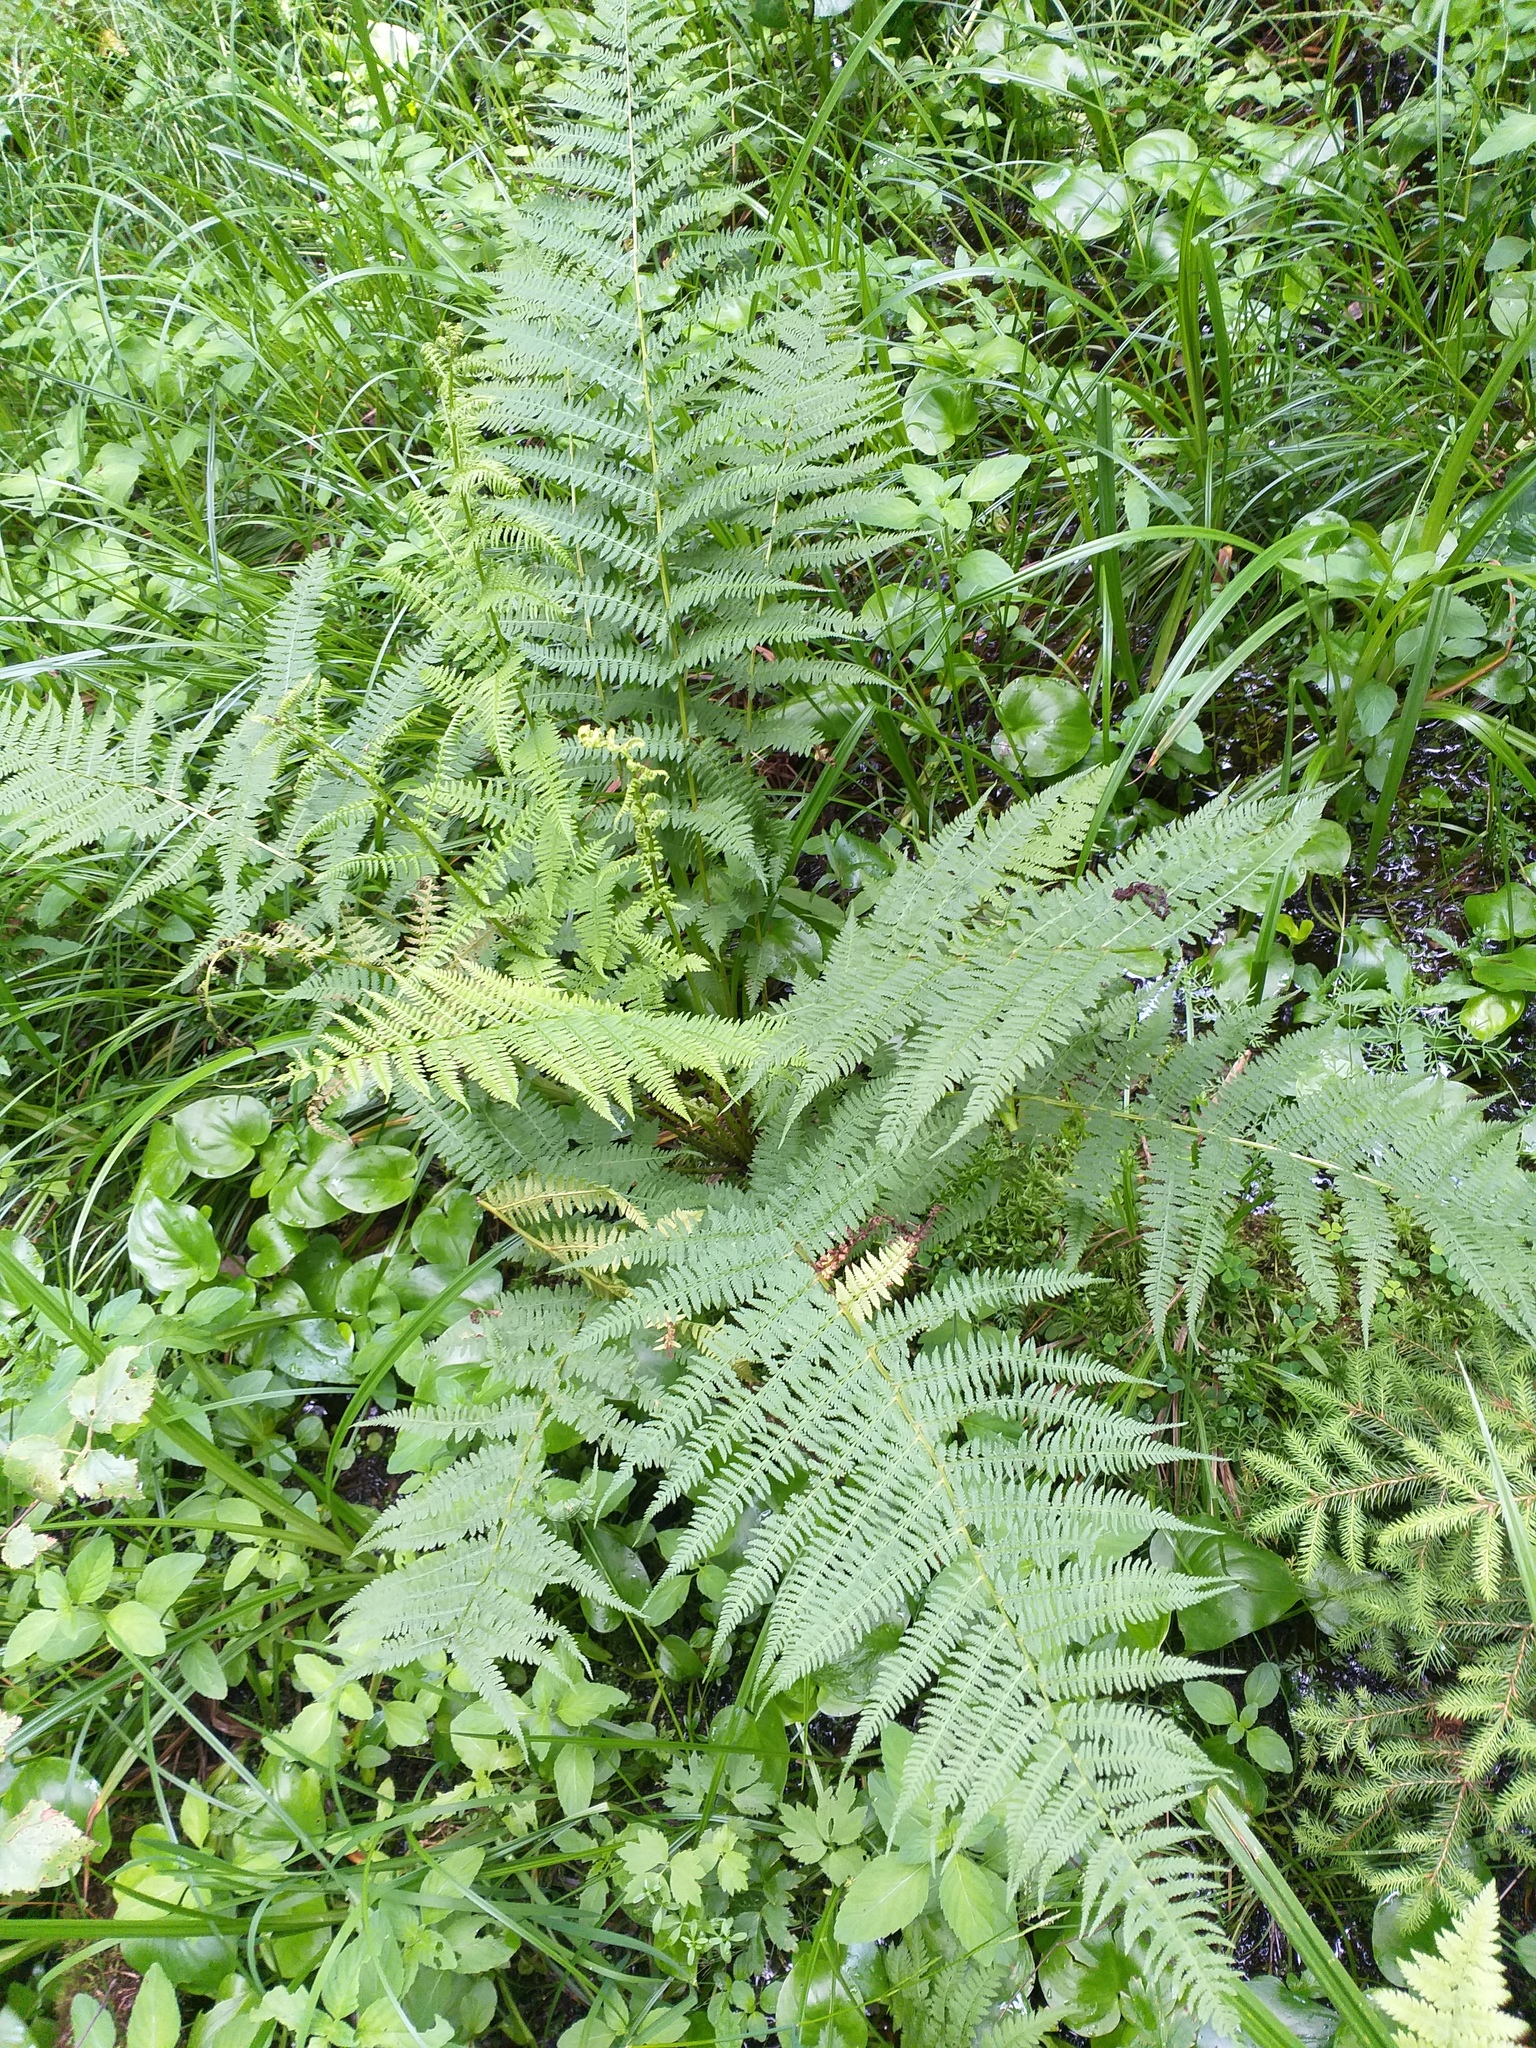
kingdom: Plantae
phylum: Tracheophyta
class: Polypodiopsida
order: Polypodiales
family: Athyriaceae
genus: Athyrium
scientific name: Athyrium filix-femina
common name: Lady fern
